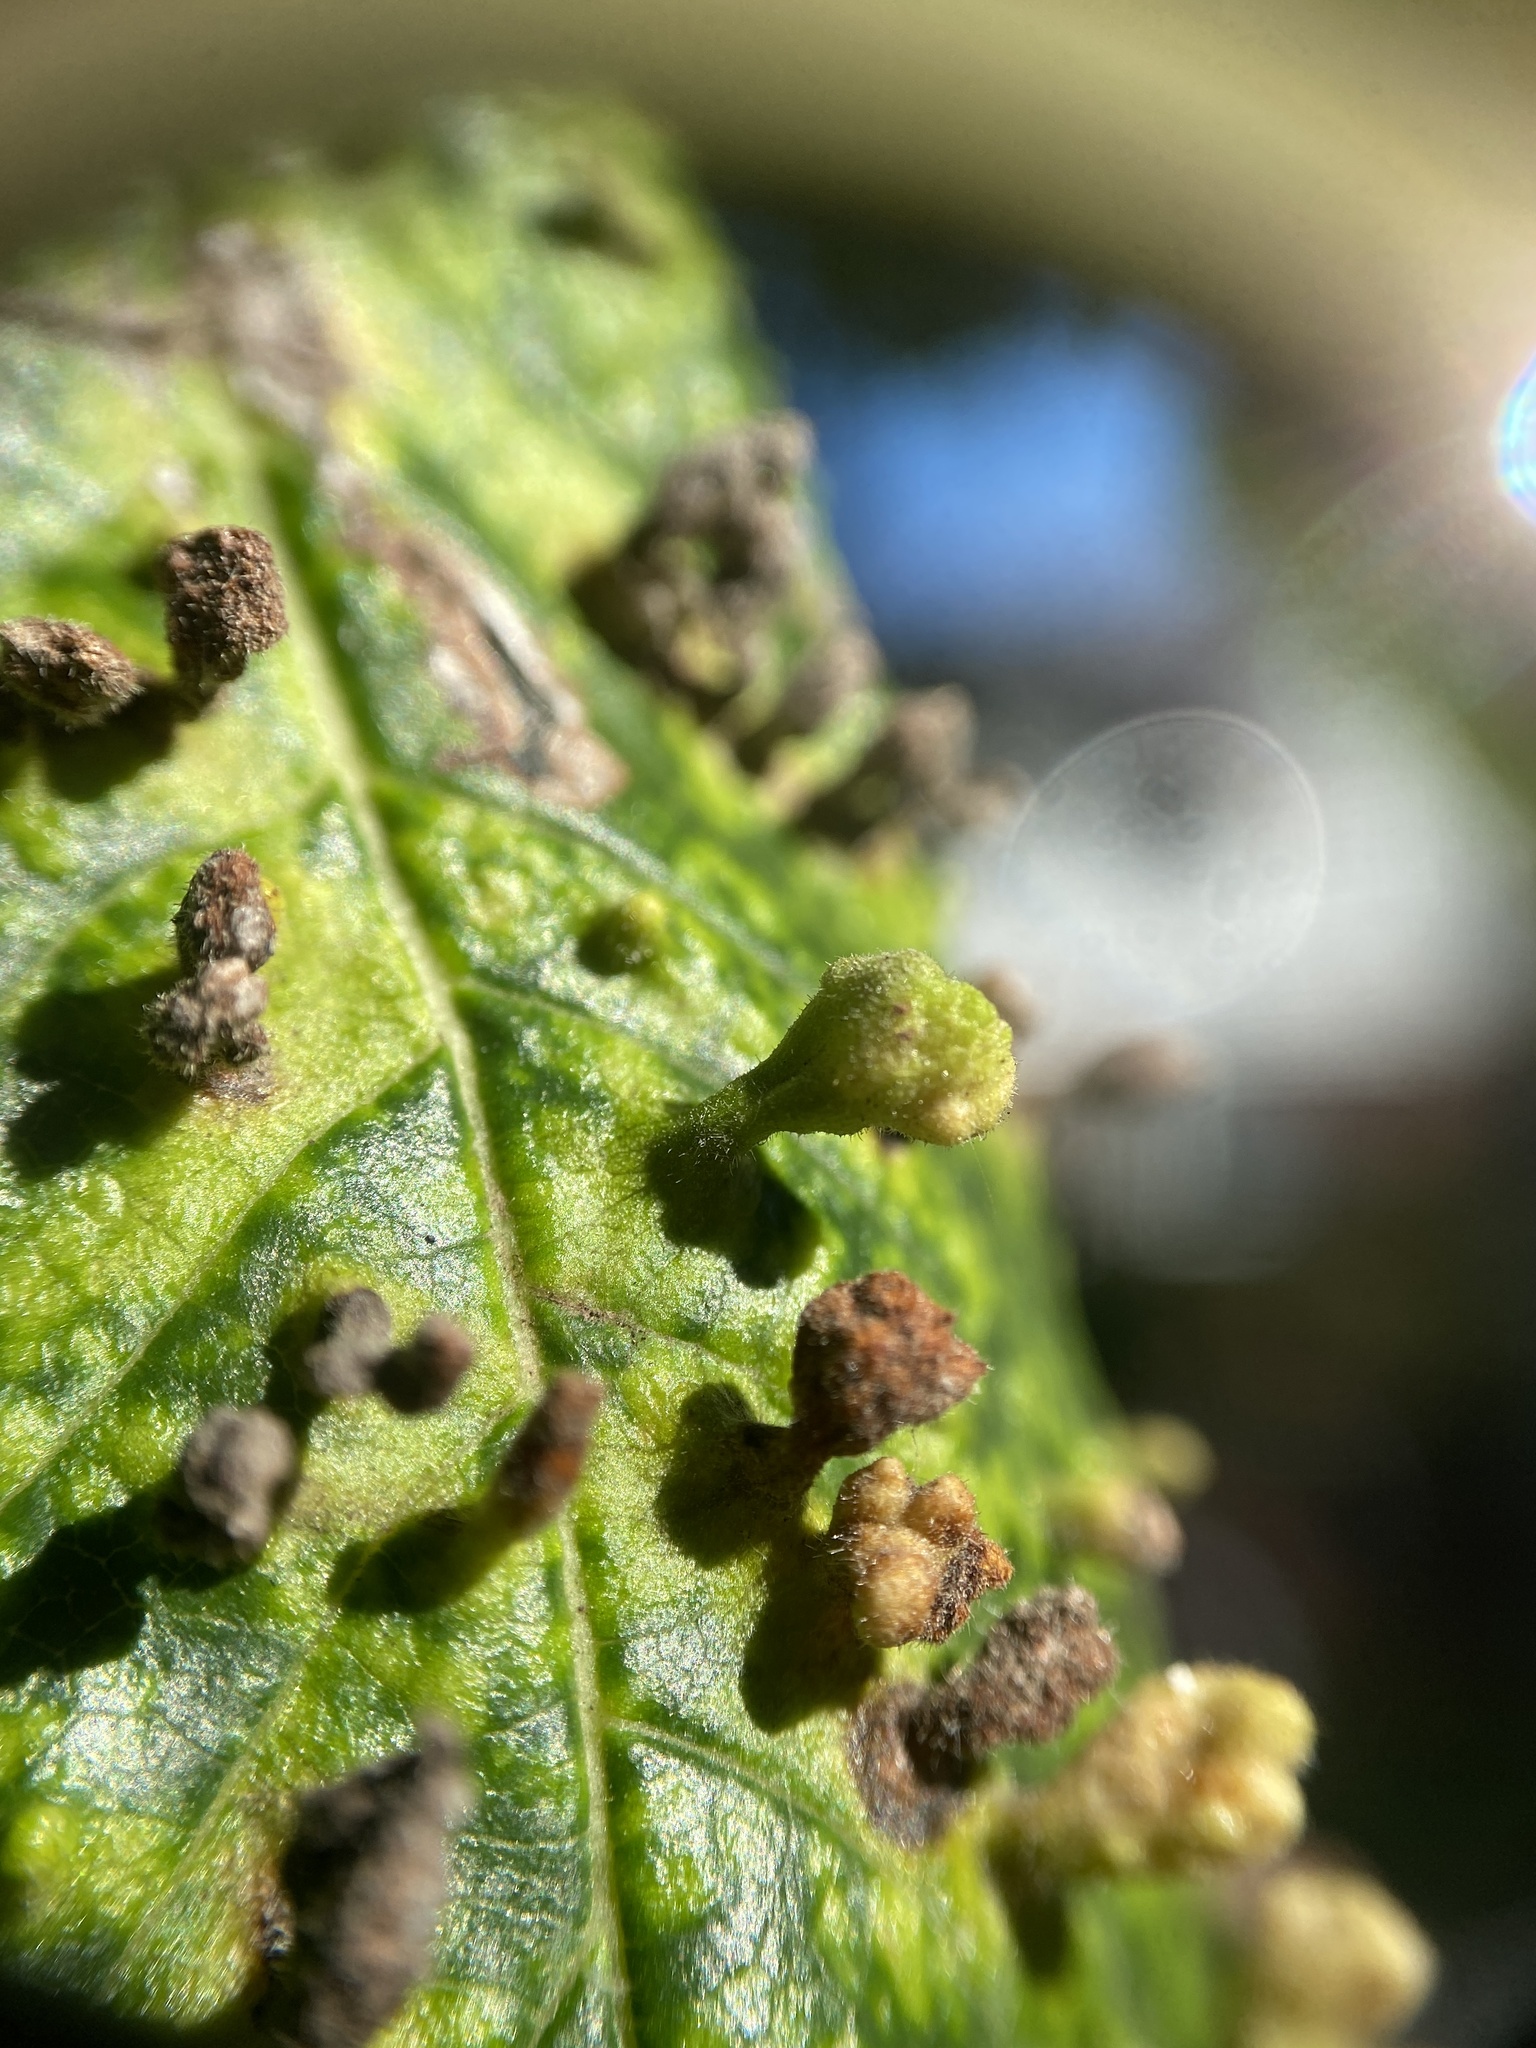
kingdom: Animalia
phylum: Arthropoda
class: Insecta
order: Hemiptera
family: Aphididae
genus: Tetraneura
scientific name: Tetraneura nigriabdominalis
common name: Aphid
